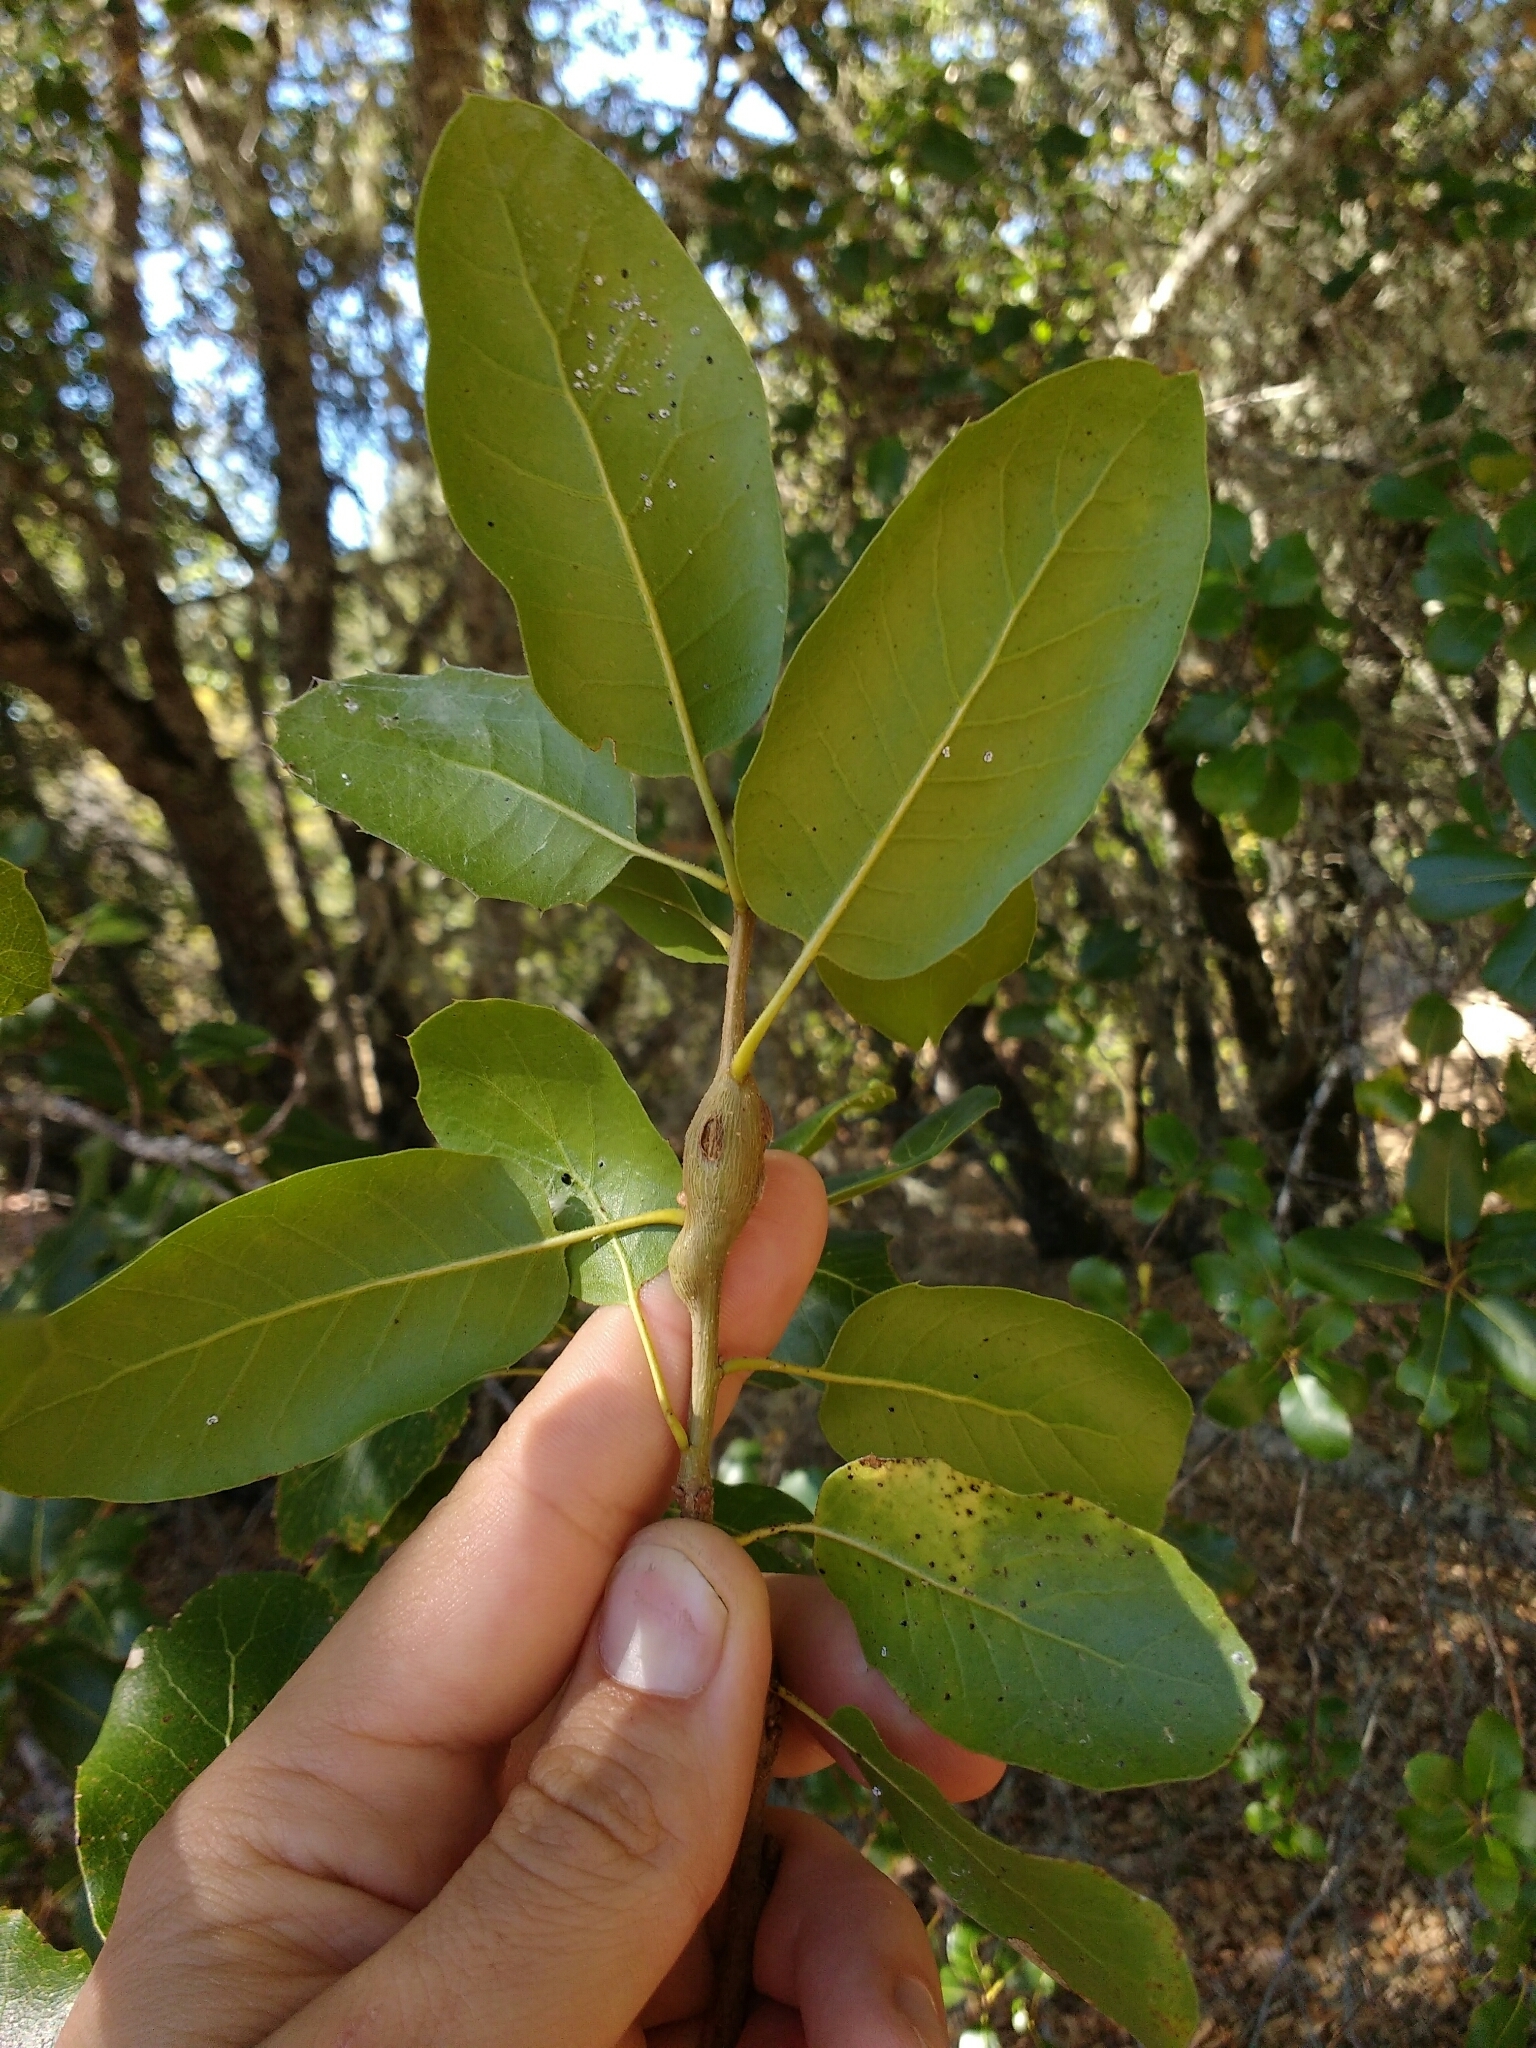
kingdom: Plantae
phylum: Tracheophyta
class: Magnoliopsida
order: Fagales
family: Fagaceae
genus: Quercus
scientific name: Quercus wislizeni
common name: Interior live oak
